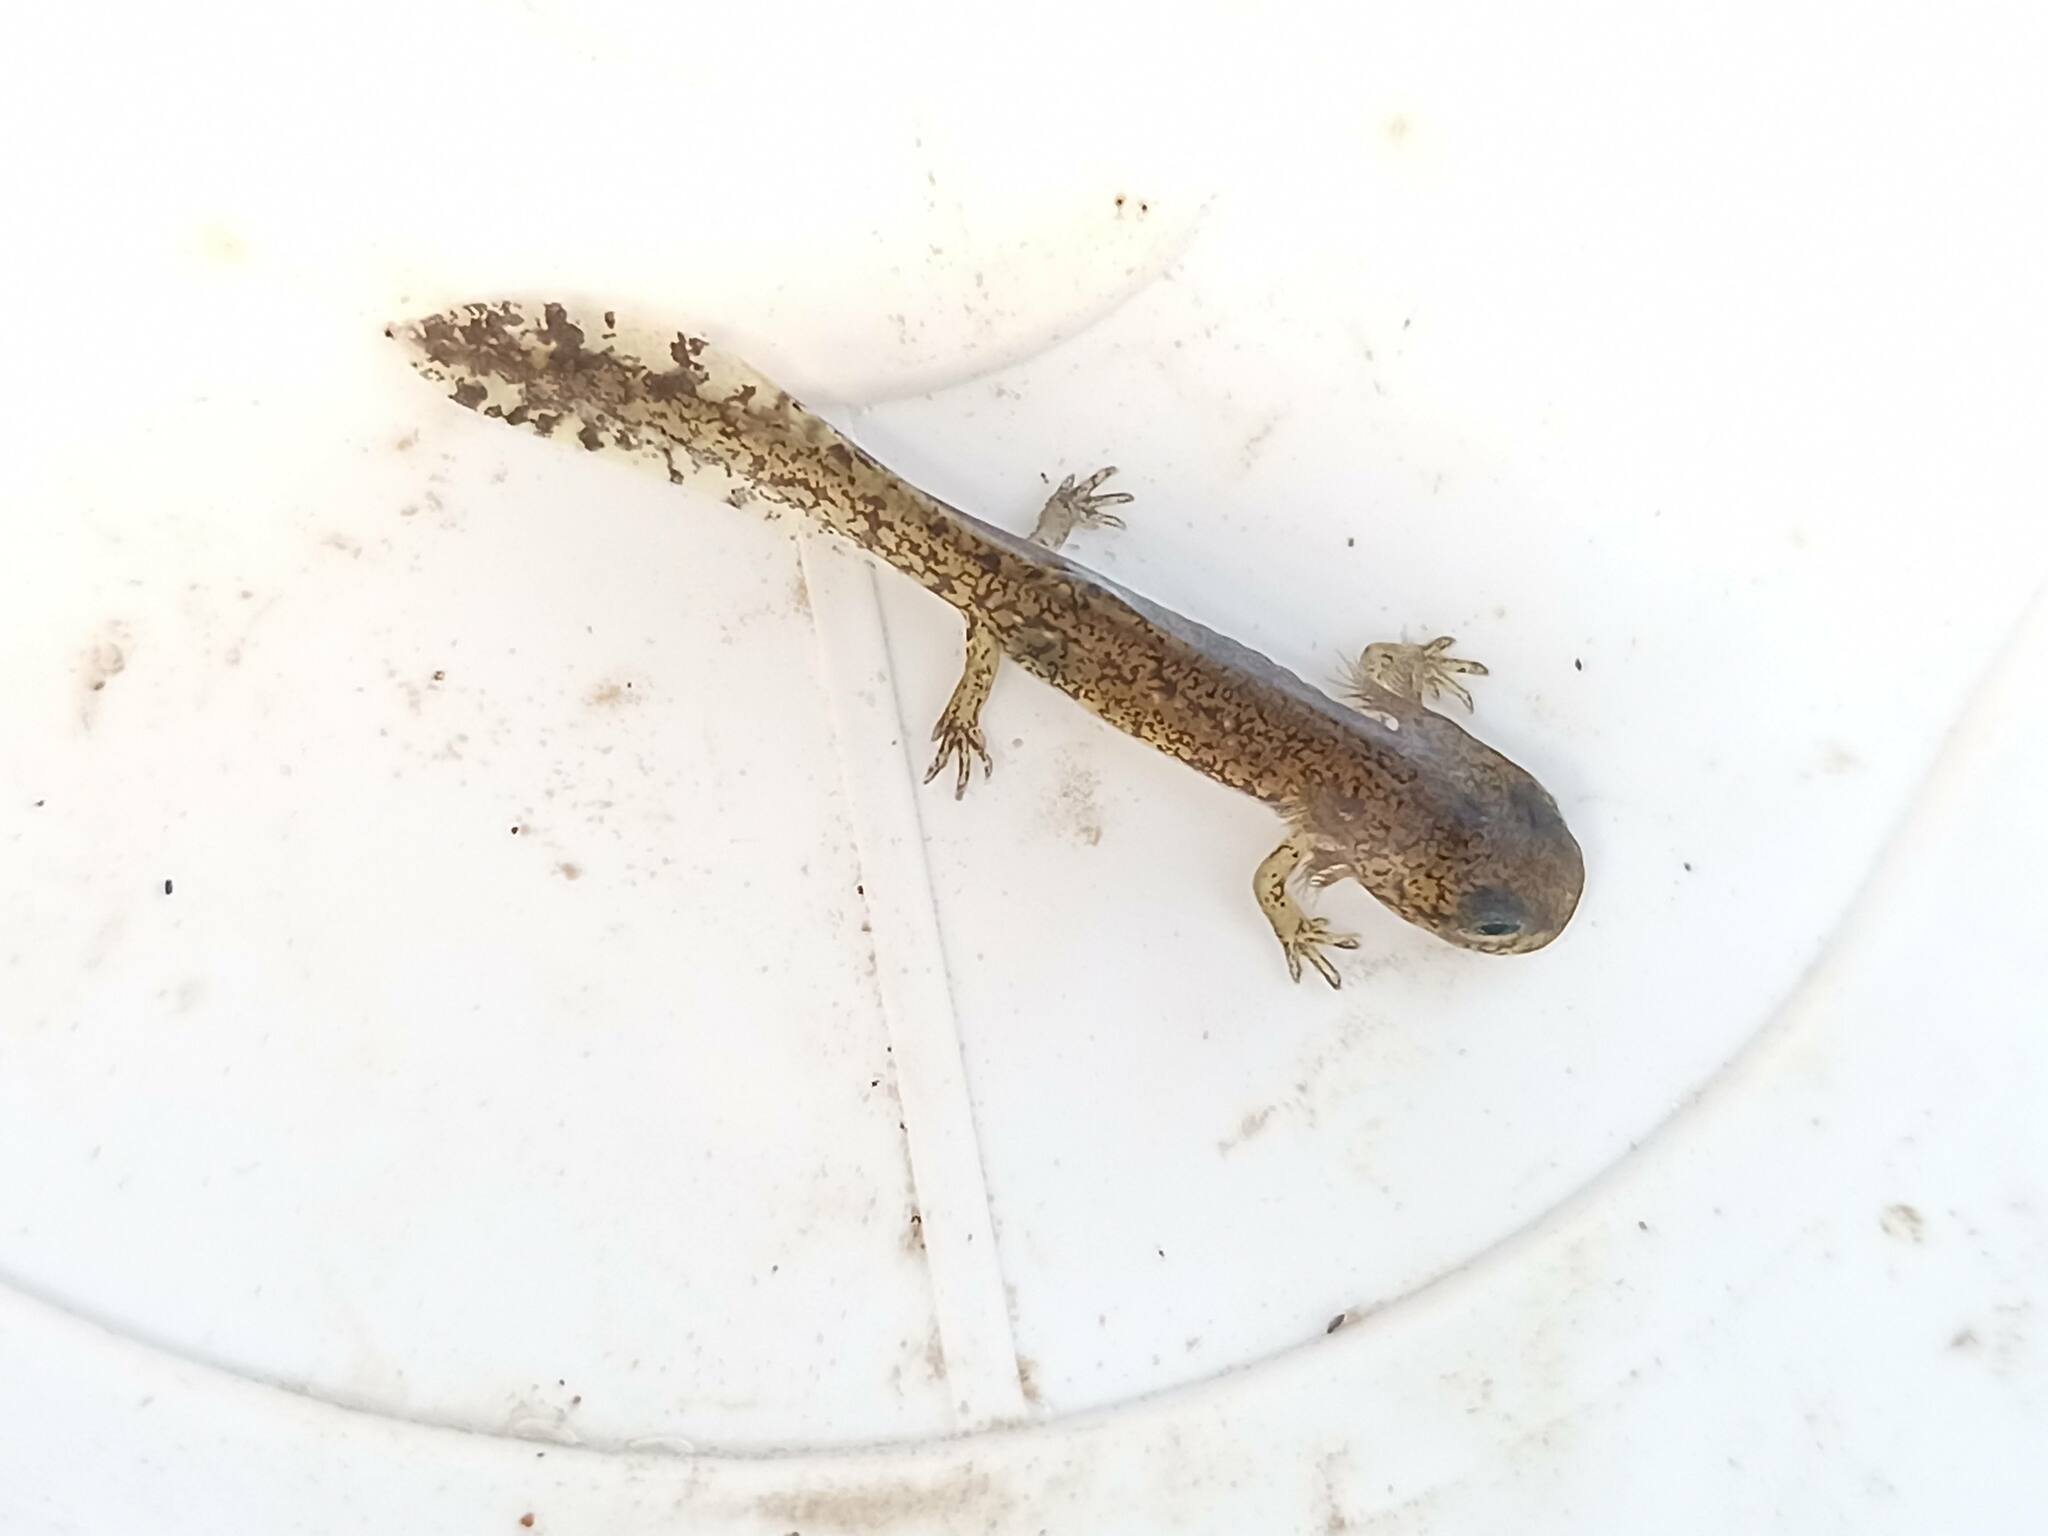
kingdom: Animalia
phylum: Chordata
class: Amphibia
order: Caudata
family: Salamandridae
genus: Salamandra
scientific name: Salamandra salamandra
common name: Fire salamander
